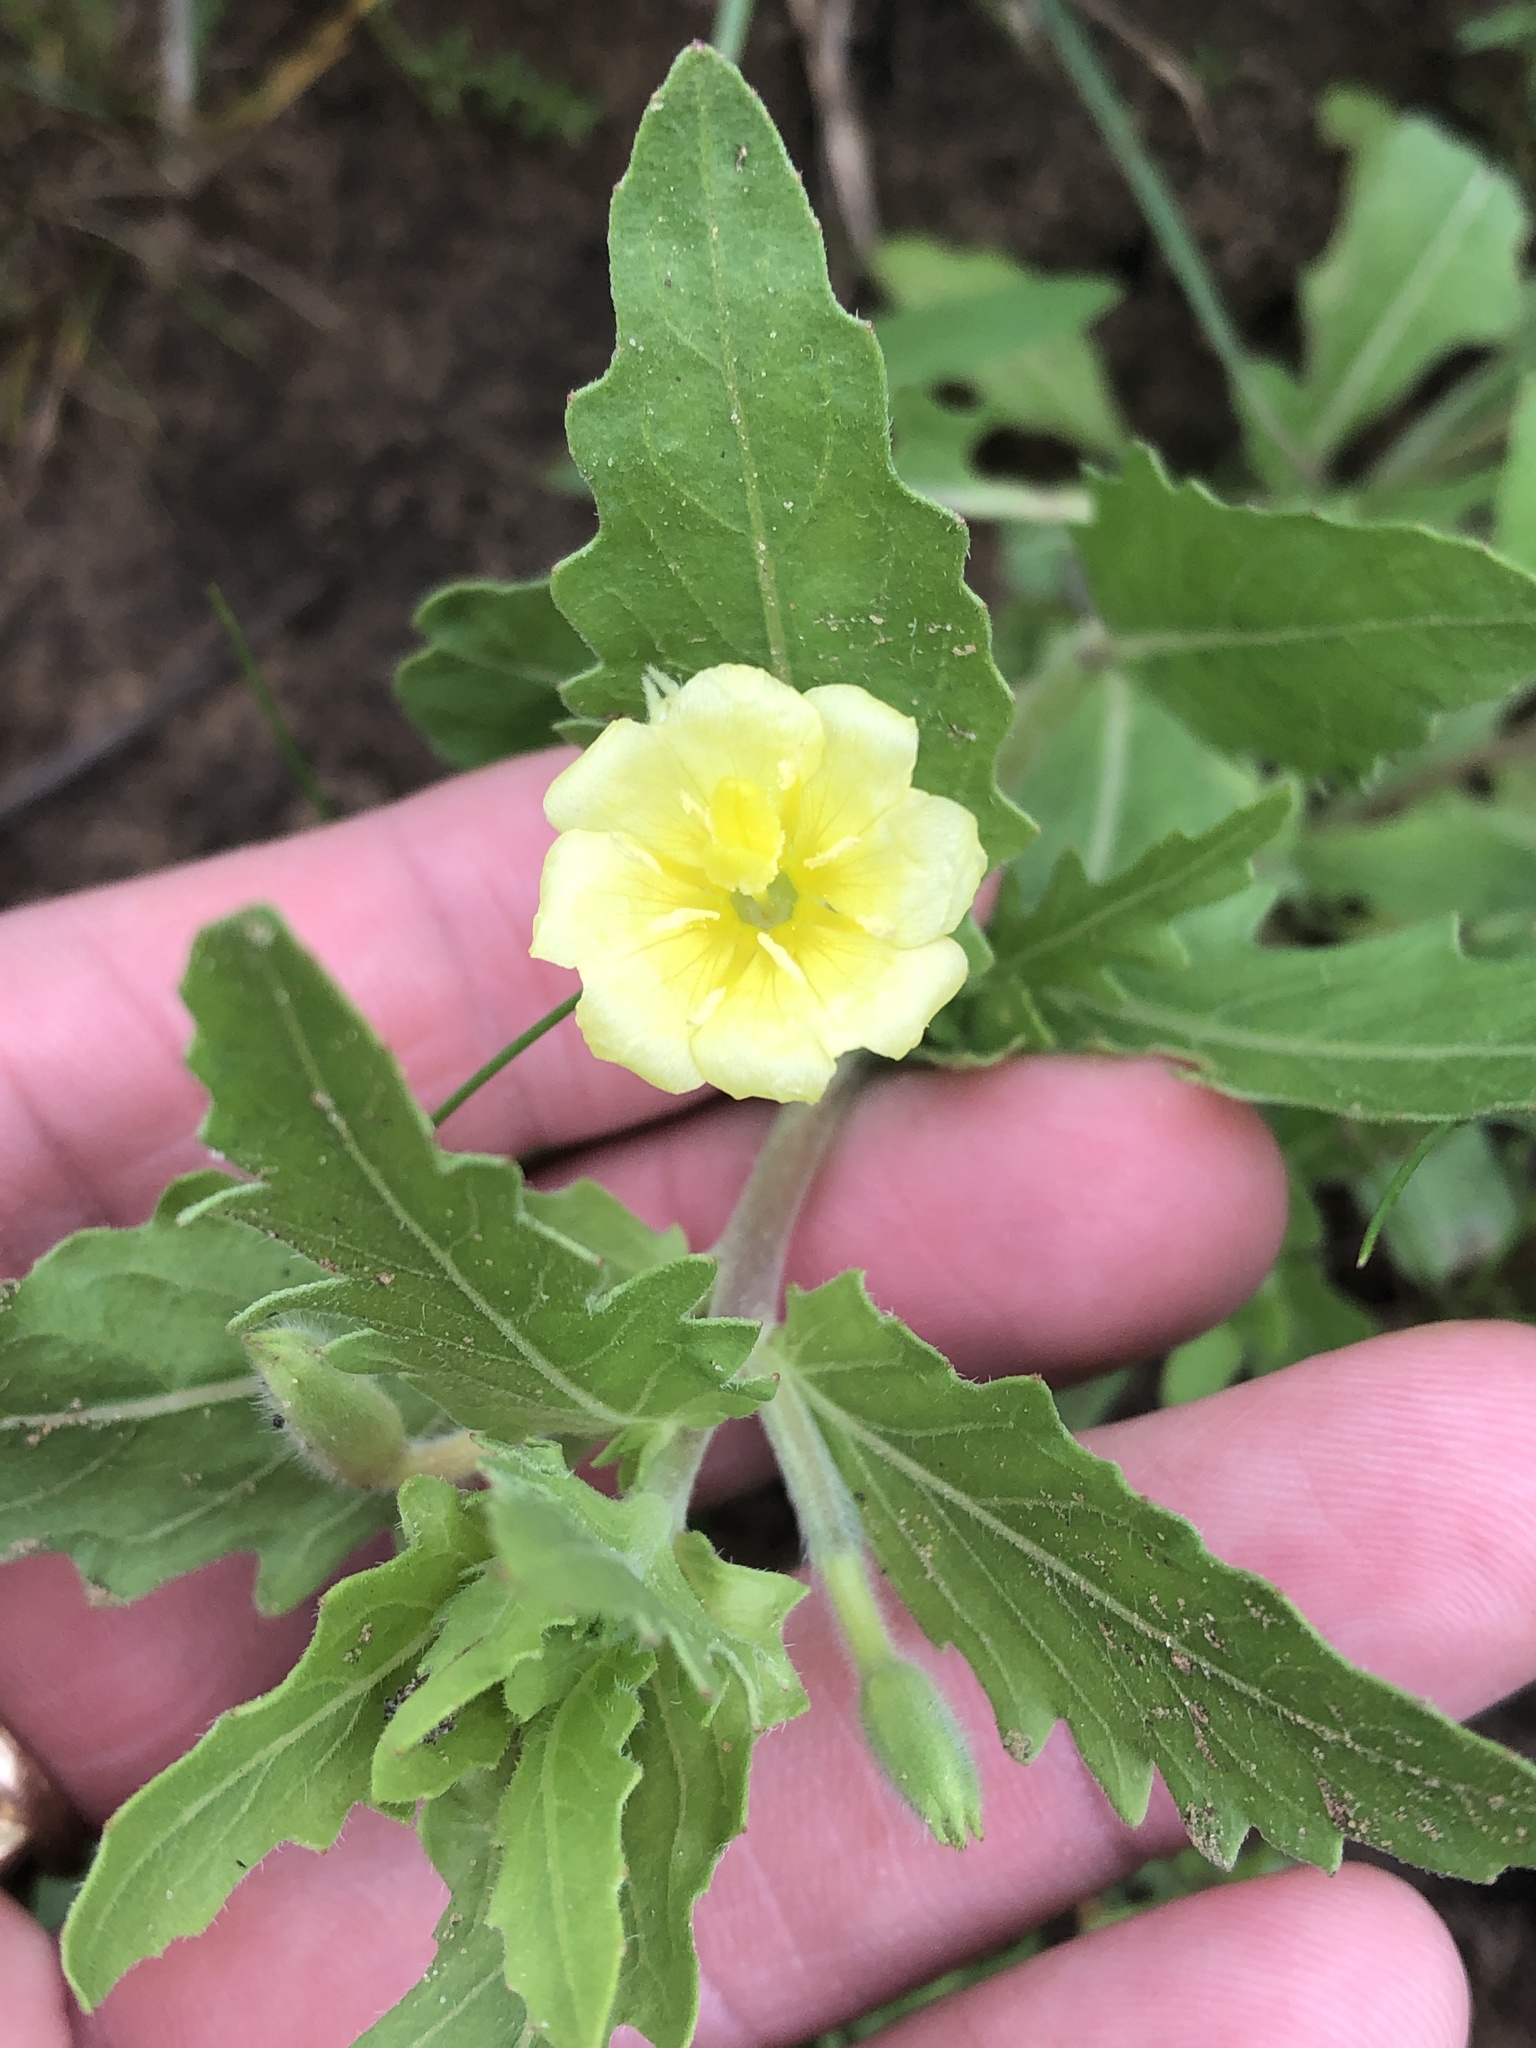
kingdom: Plantae
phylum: Tracheophyta
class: Magnoliopsida
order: Myrtales
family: Onagraceae
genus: Oenothera
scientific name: Oenothera laciniata
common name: Cut-leaved evening-primrose
